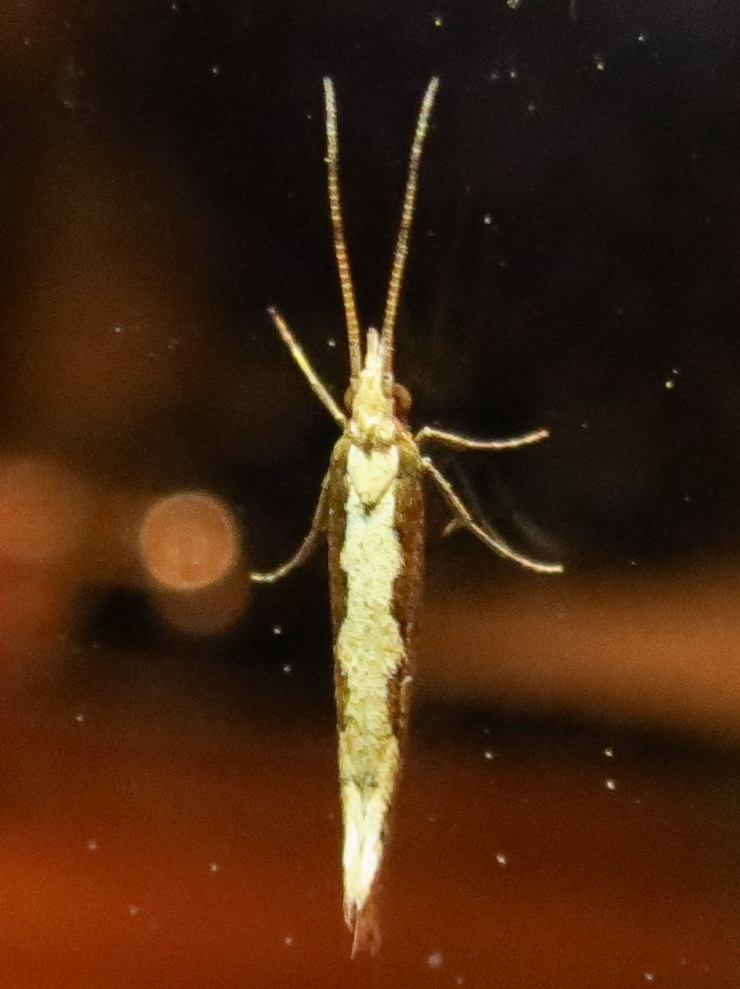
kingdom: Animalia
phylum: Arthropoda
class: Insecta
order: Lepidoptera
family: Plutellidae
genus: Plutella
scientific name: Plutella xylostella
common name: Diamond-back moth
